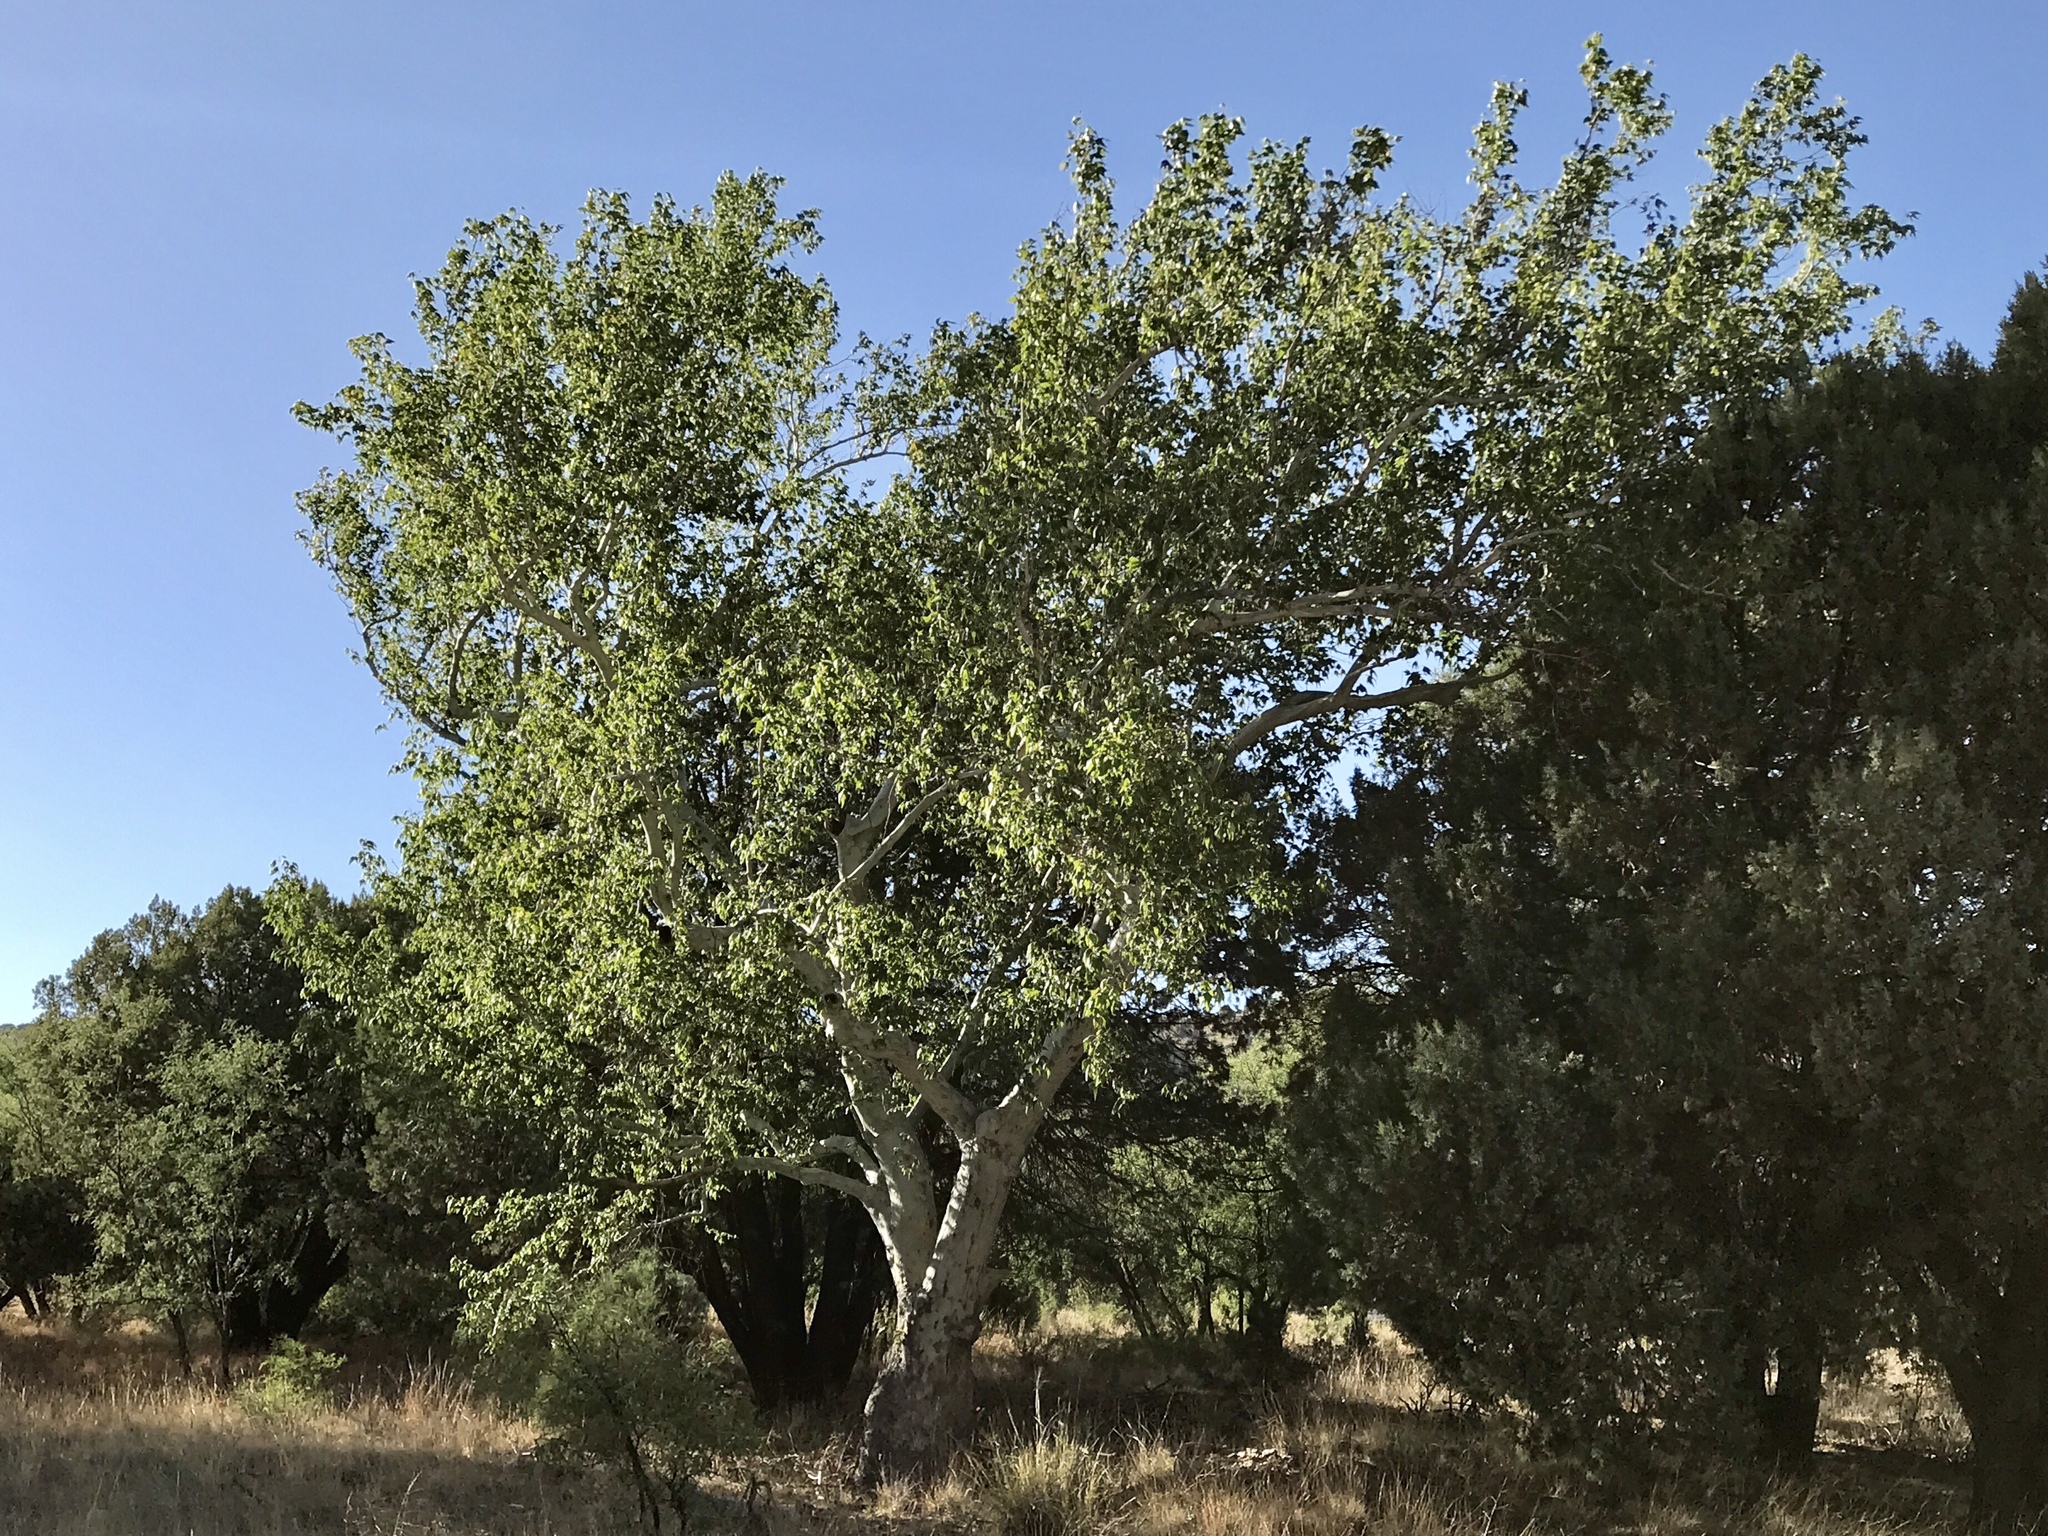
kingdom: Plantae
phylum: Tracheophyta
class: Magnoliopsida
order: Proteales
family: Platanaceae
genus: Platanus
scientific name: Platanus wrightii
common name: Arizona sycamore
